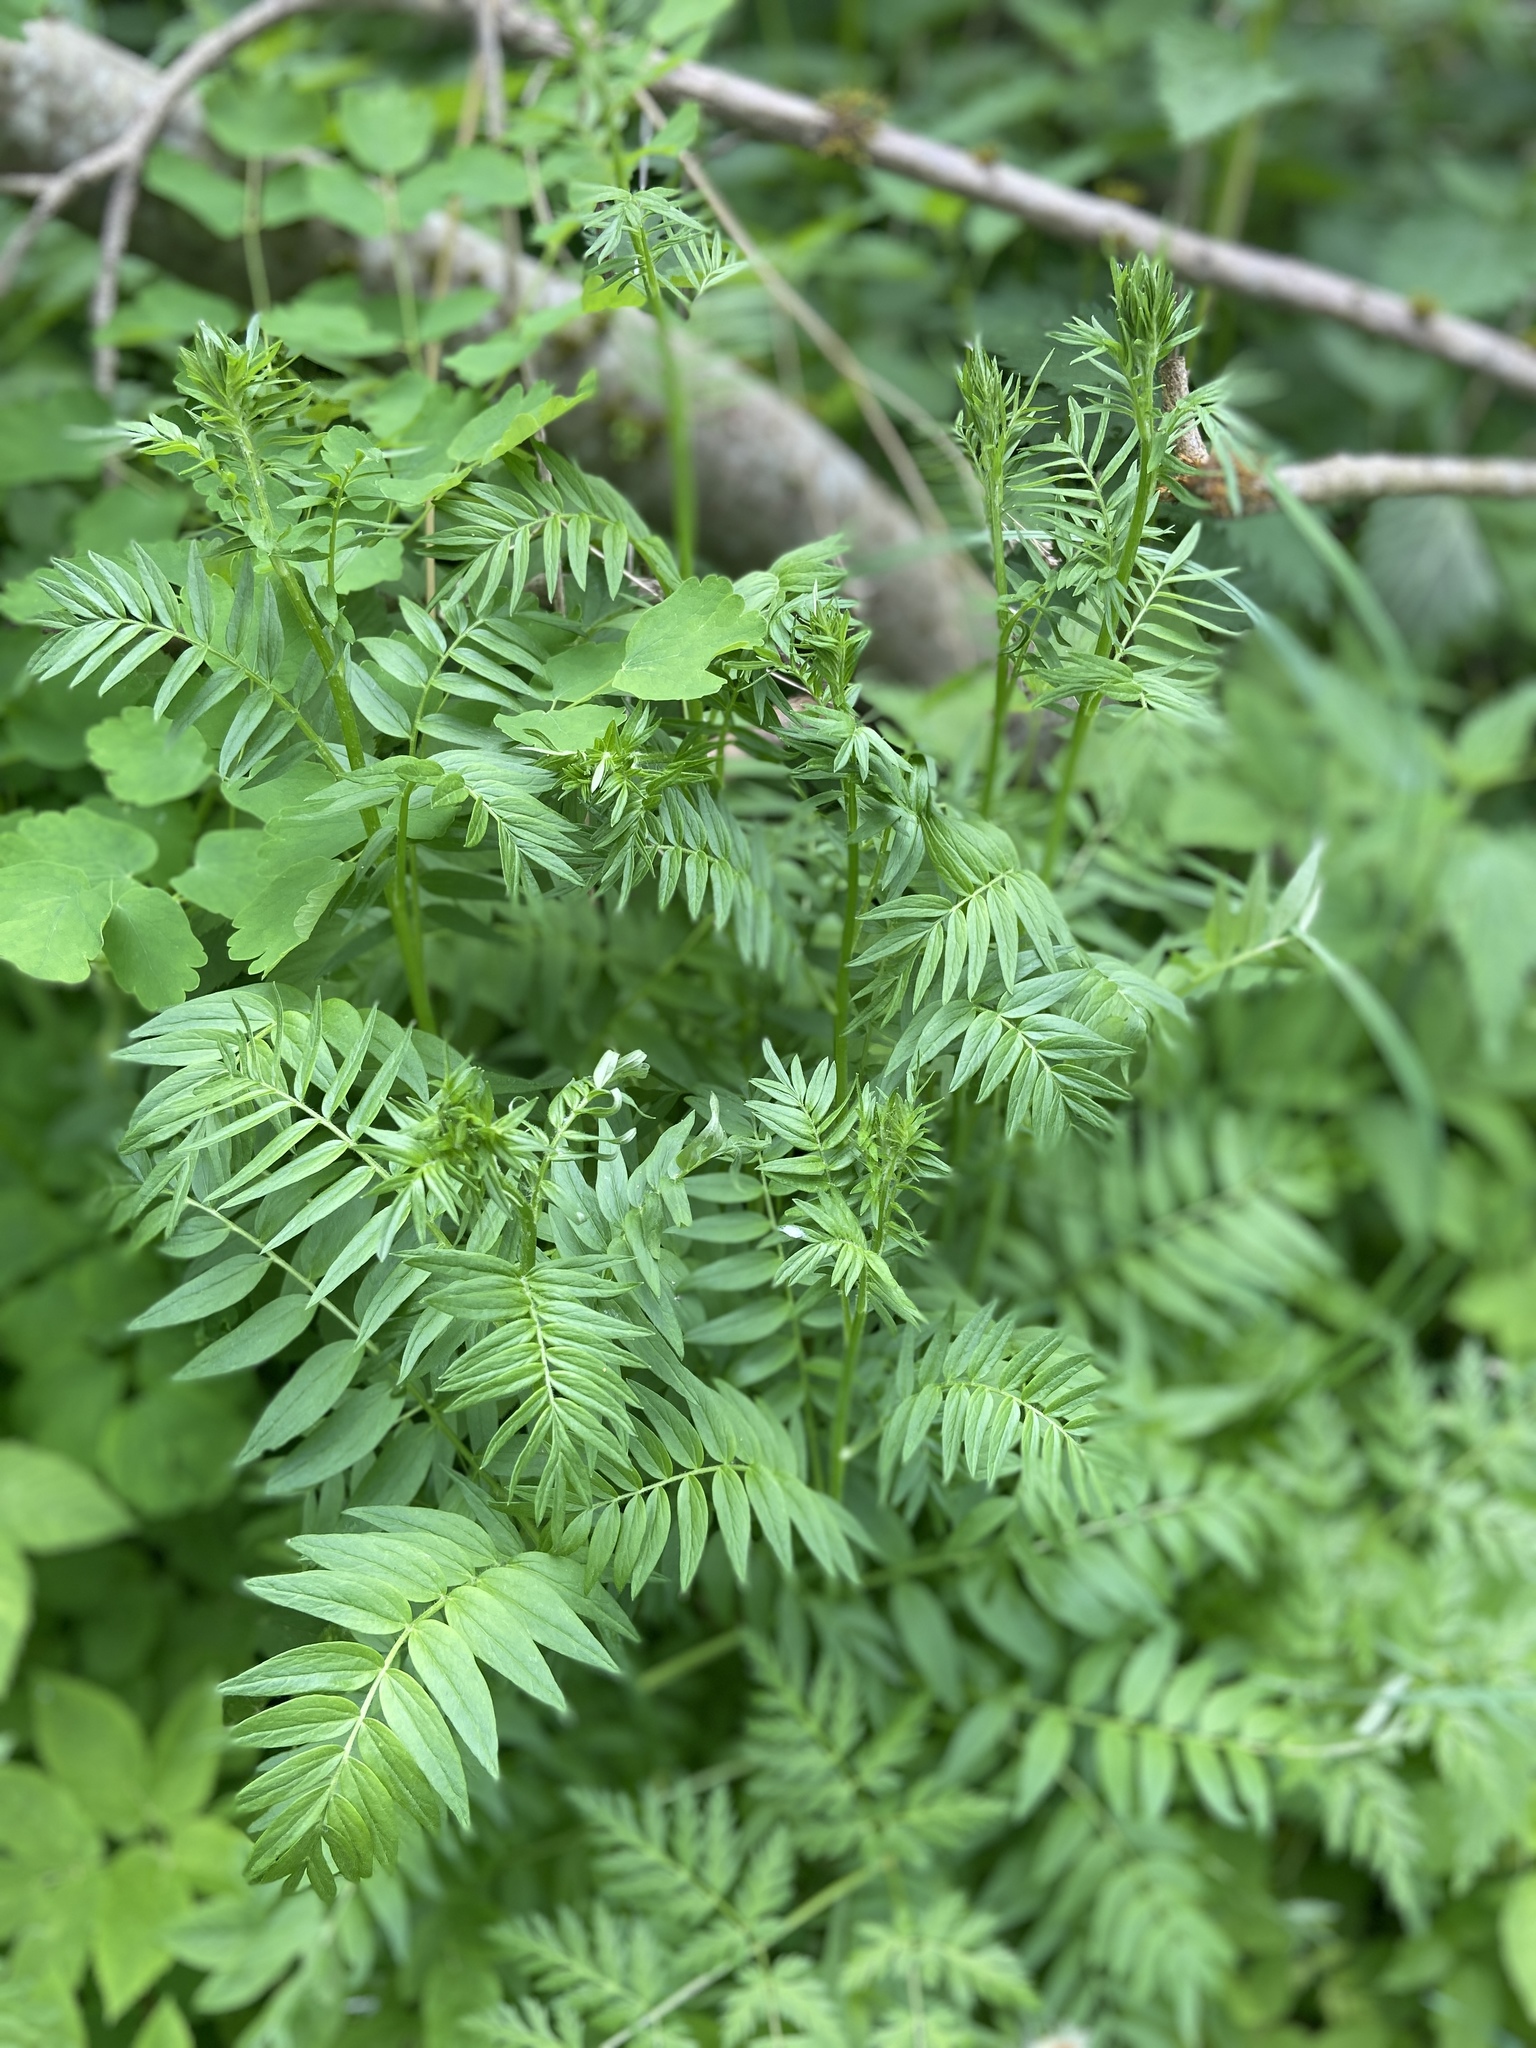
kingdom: Plantae
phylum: Tracheophyta
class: Magnoliopsida
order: Ericales
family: Polemoniaceae
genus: Polemonium
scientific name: Polemonium caeruleum
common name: Jacob's-ladder
